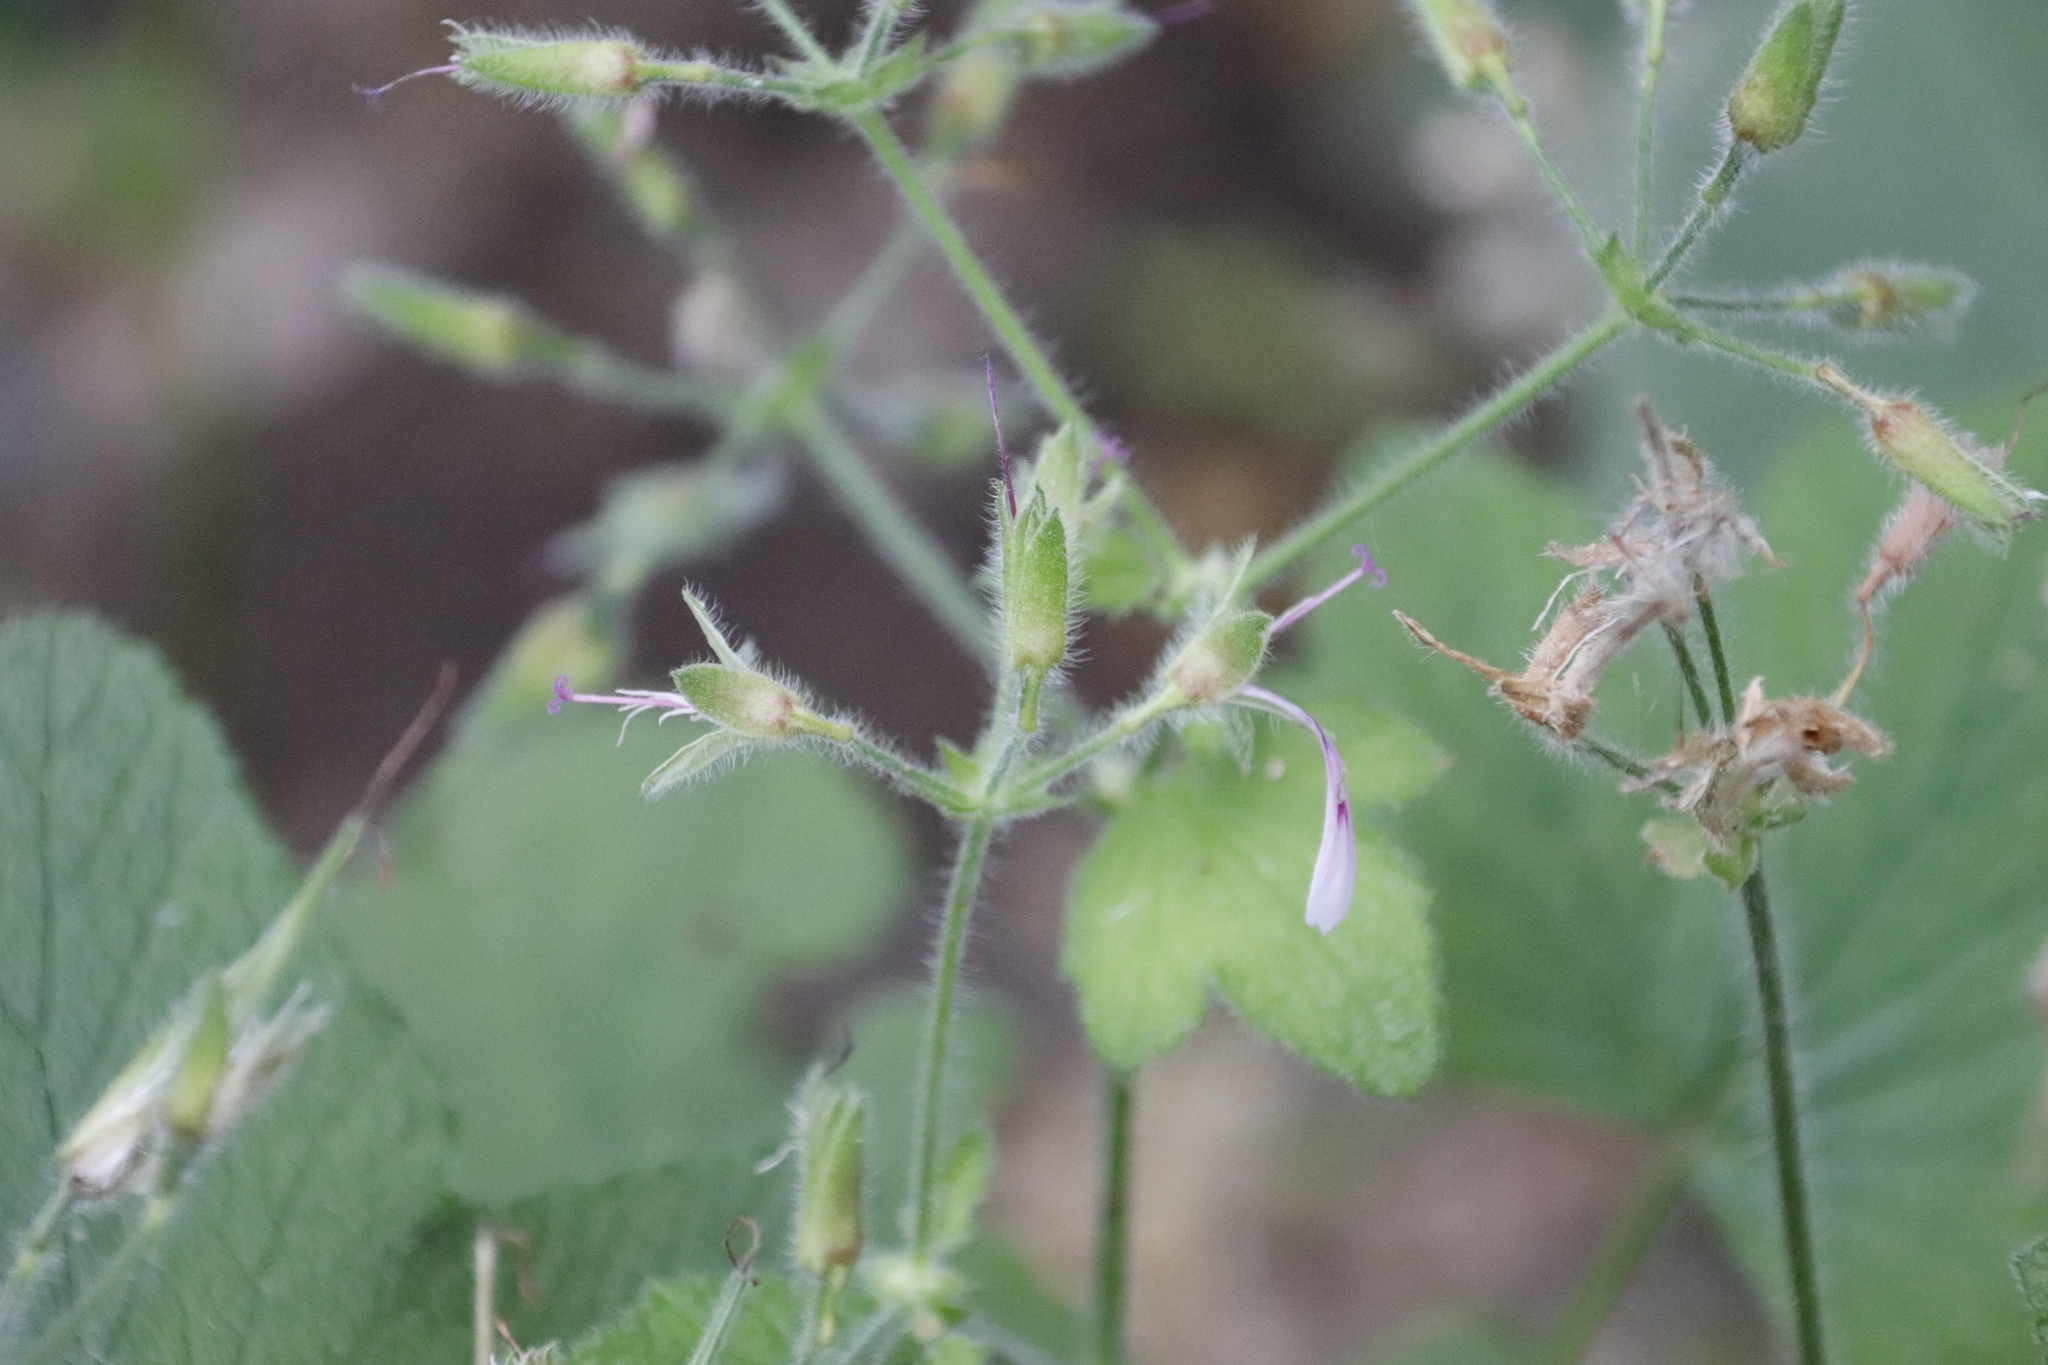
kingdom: Plantae
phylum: Tracheophyta
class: Magnoliopsida
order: Geraniales
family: Geraniaceae
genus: Pelargonium
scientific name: Pelargonium papilionaceum
